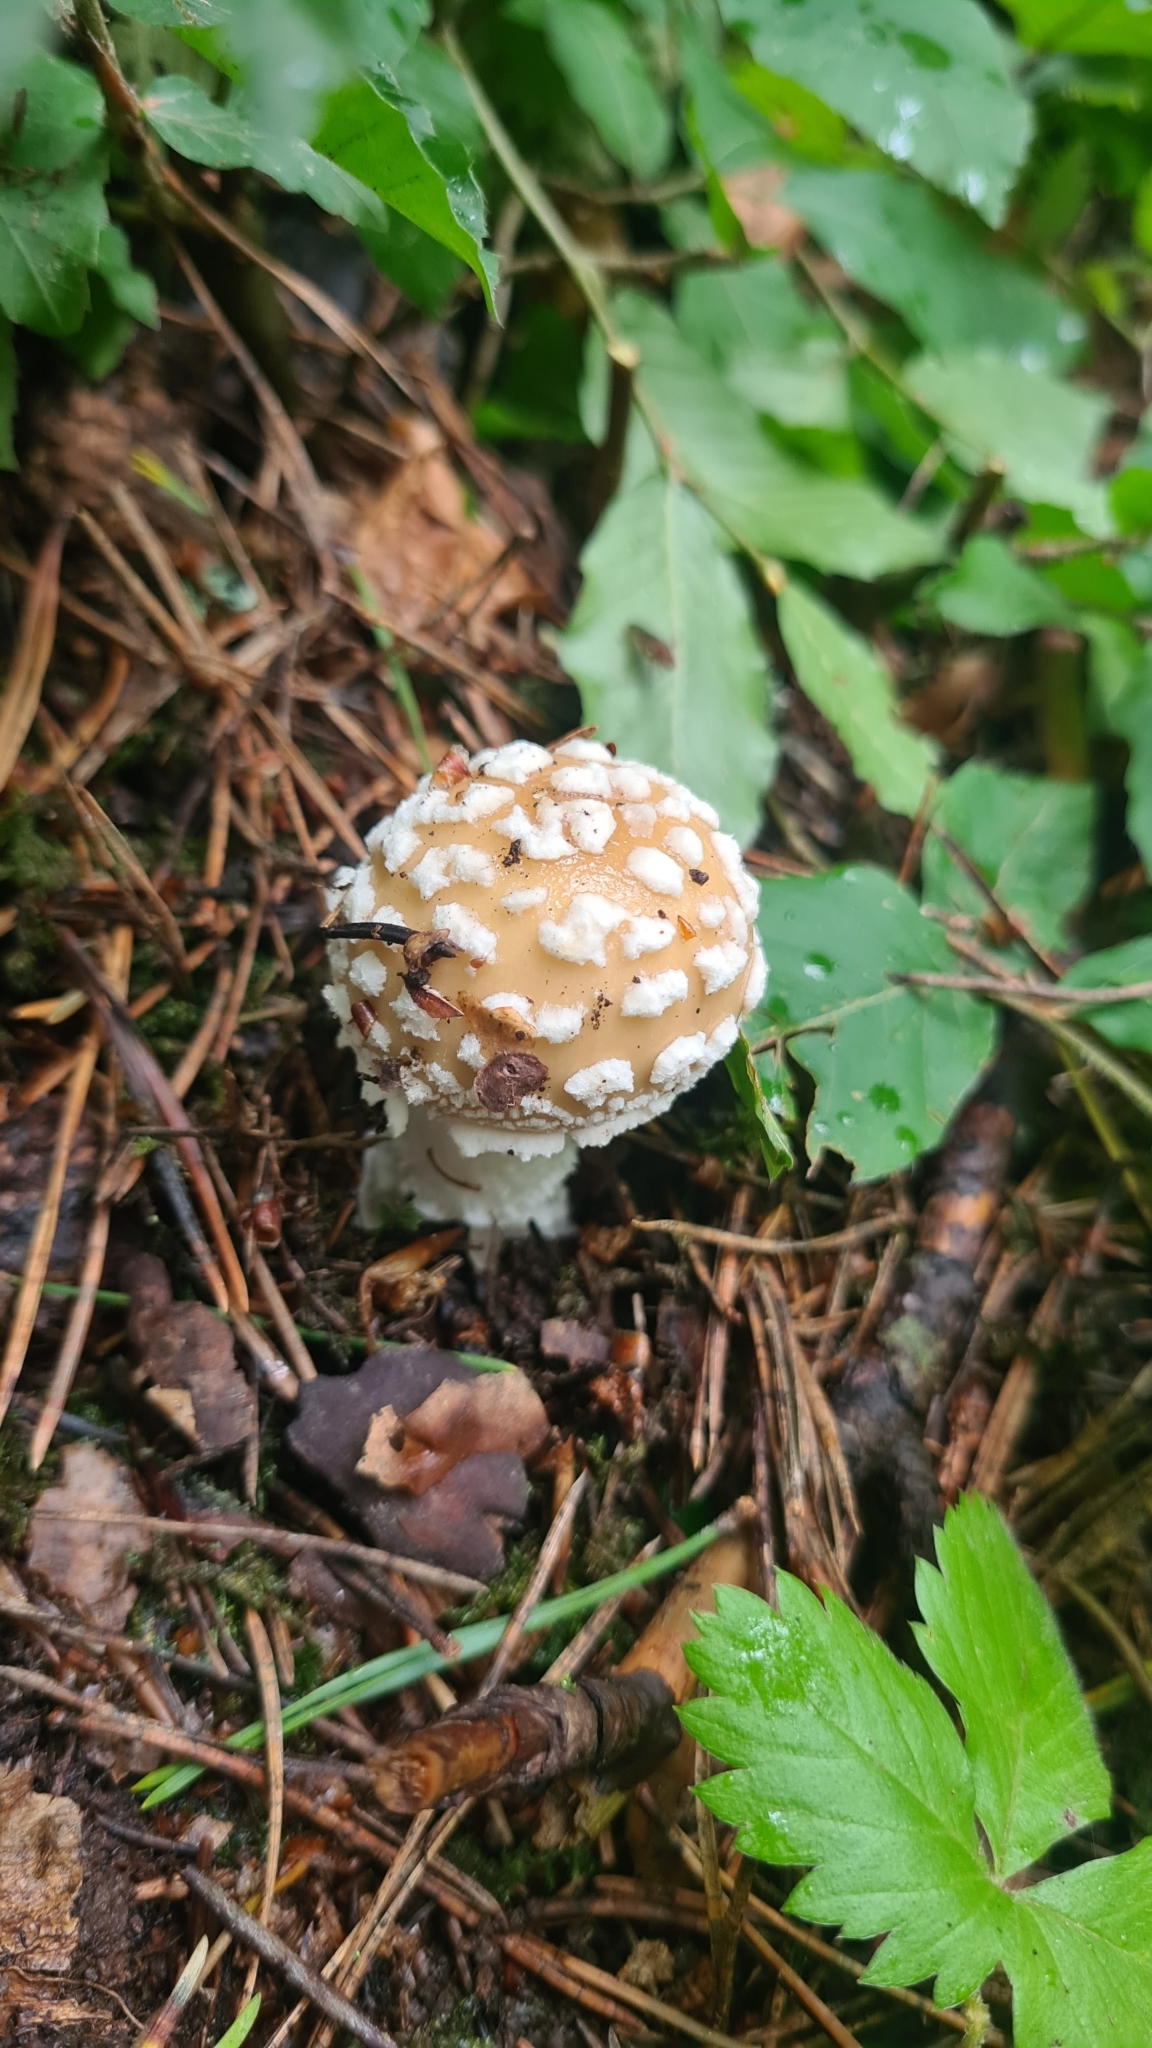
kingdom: Fungi
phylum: Basidiomycota
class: Agaricomycetes
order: Agaricales
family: Amanitaceae
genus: Amanita
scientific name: Amanita pantherina
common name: Panthercap
